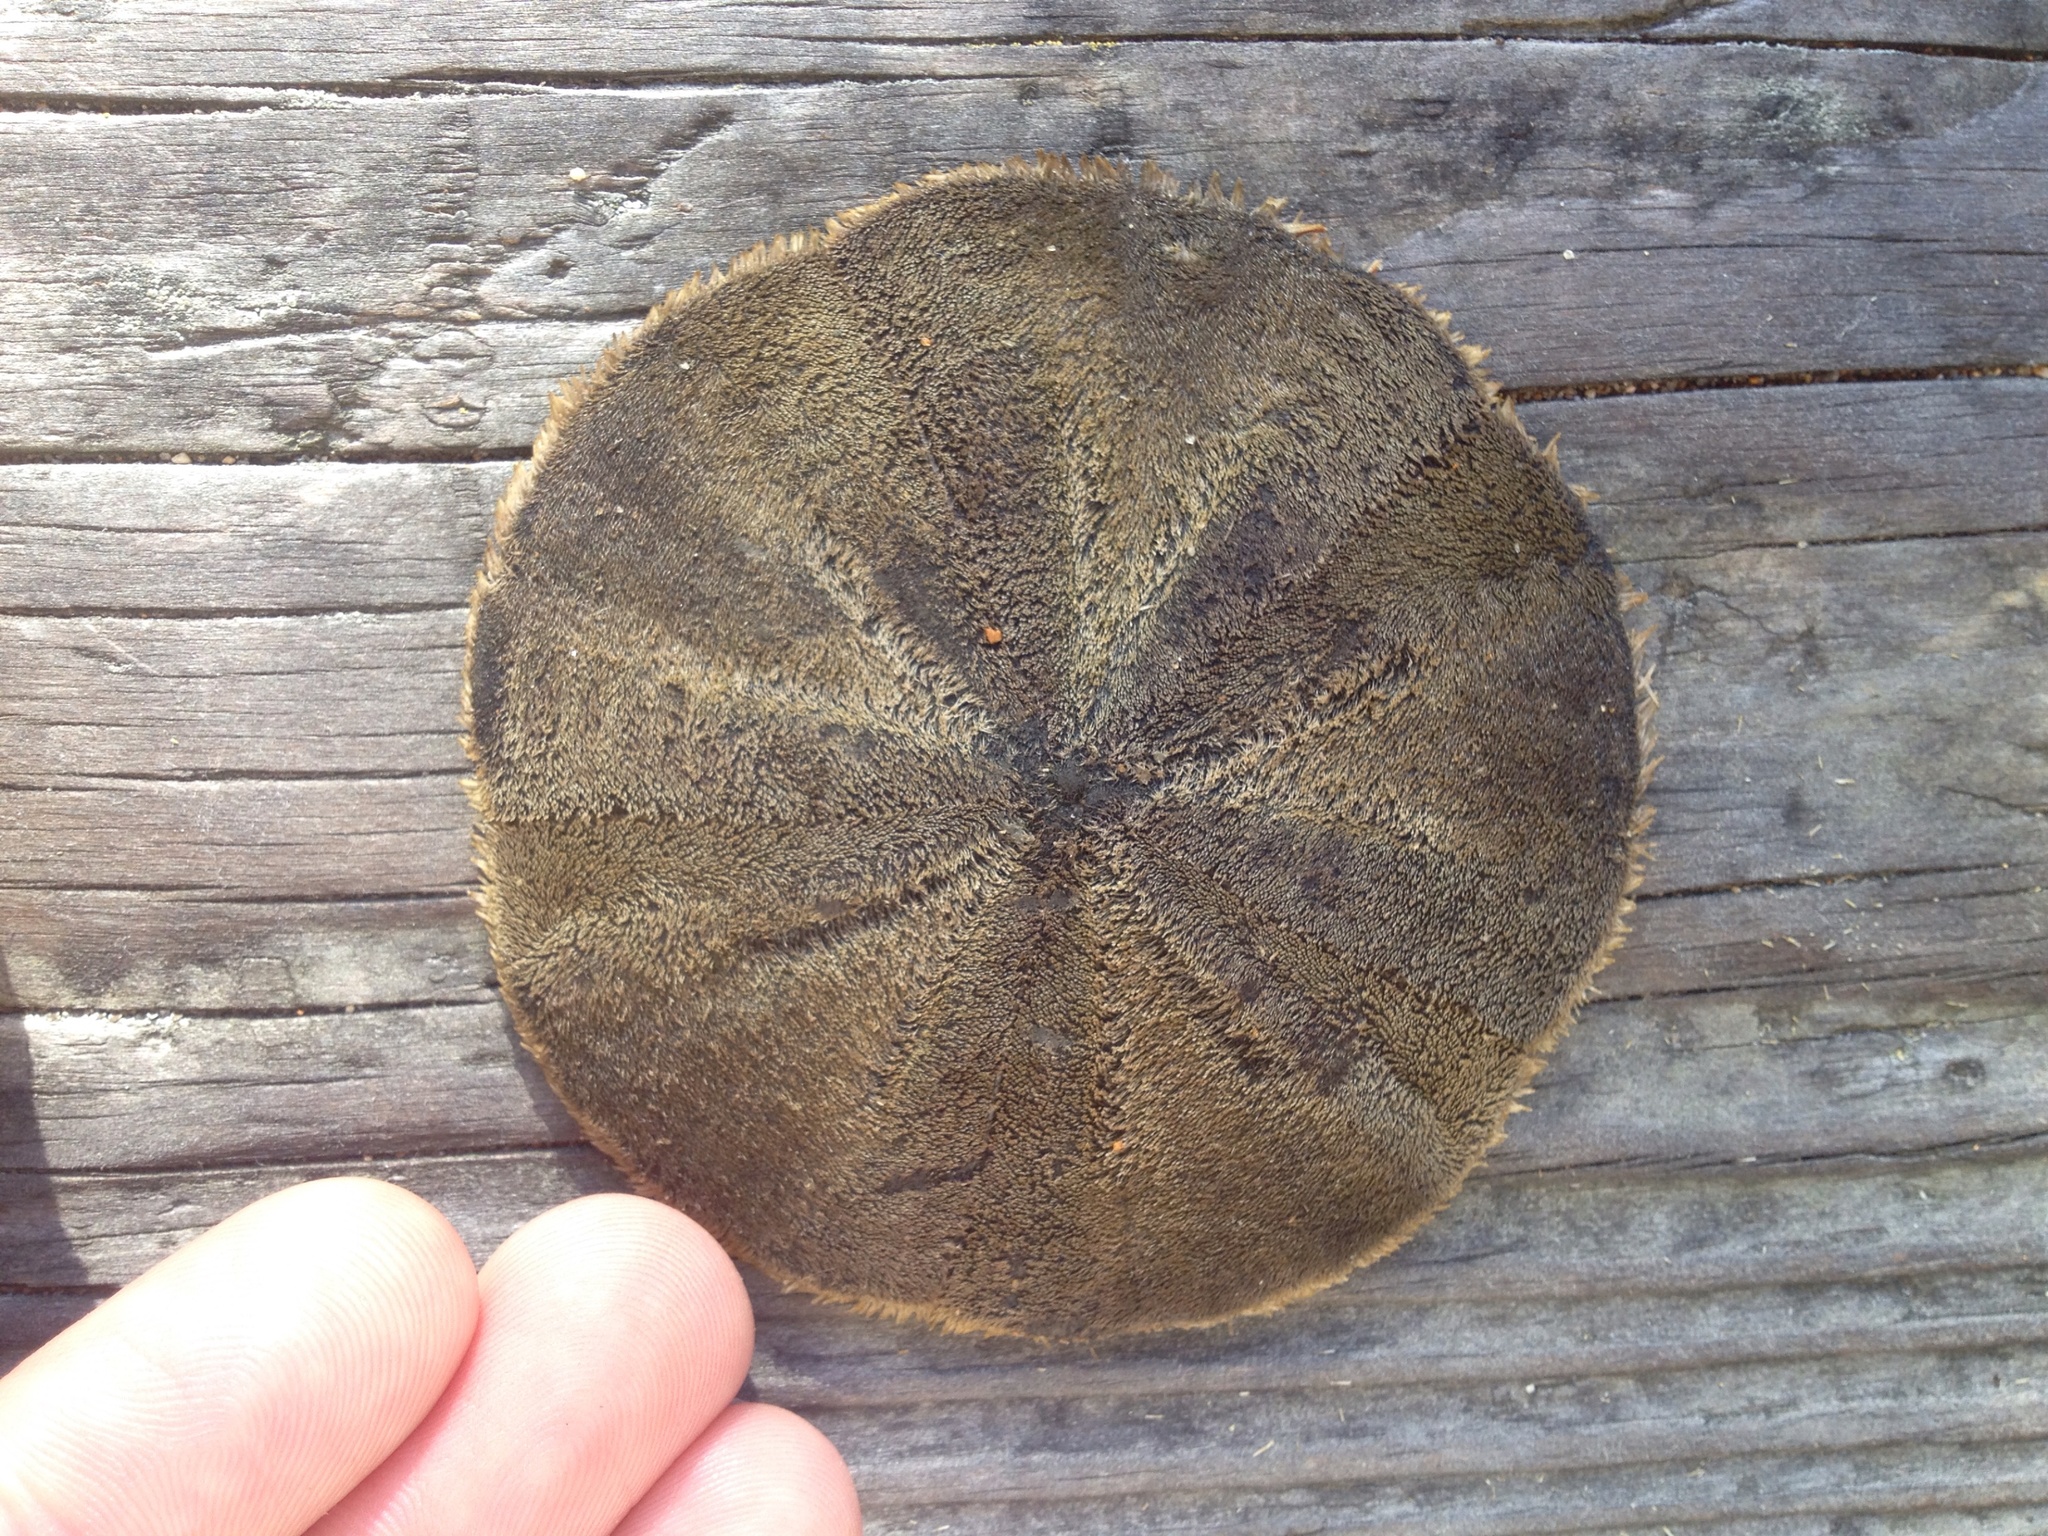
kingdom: Animalia
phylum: Echinodermata
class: Echinoidea
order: Clypeasteroida
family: Clypeasteridae
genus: Fellaster
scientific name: Fellaster zelandiae
